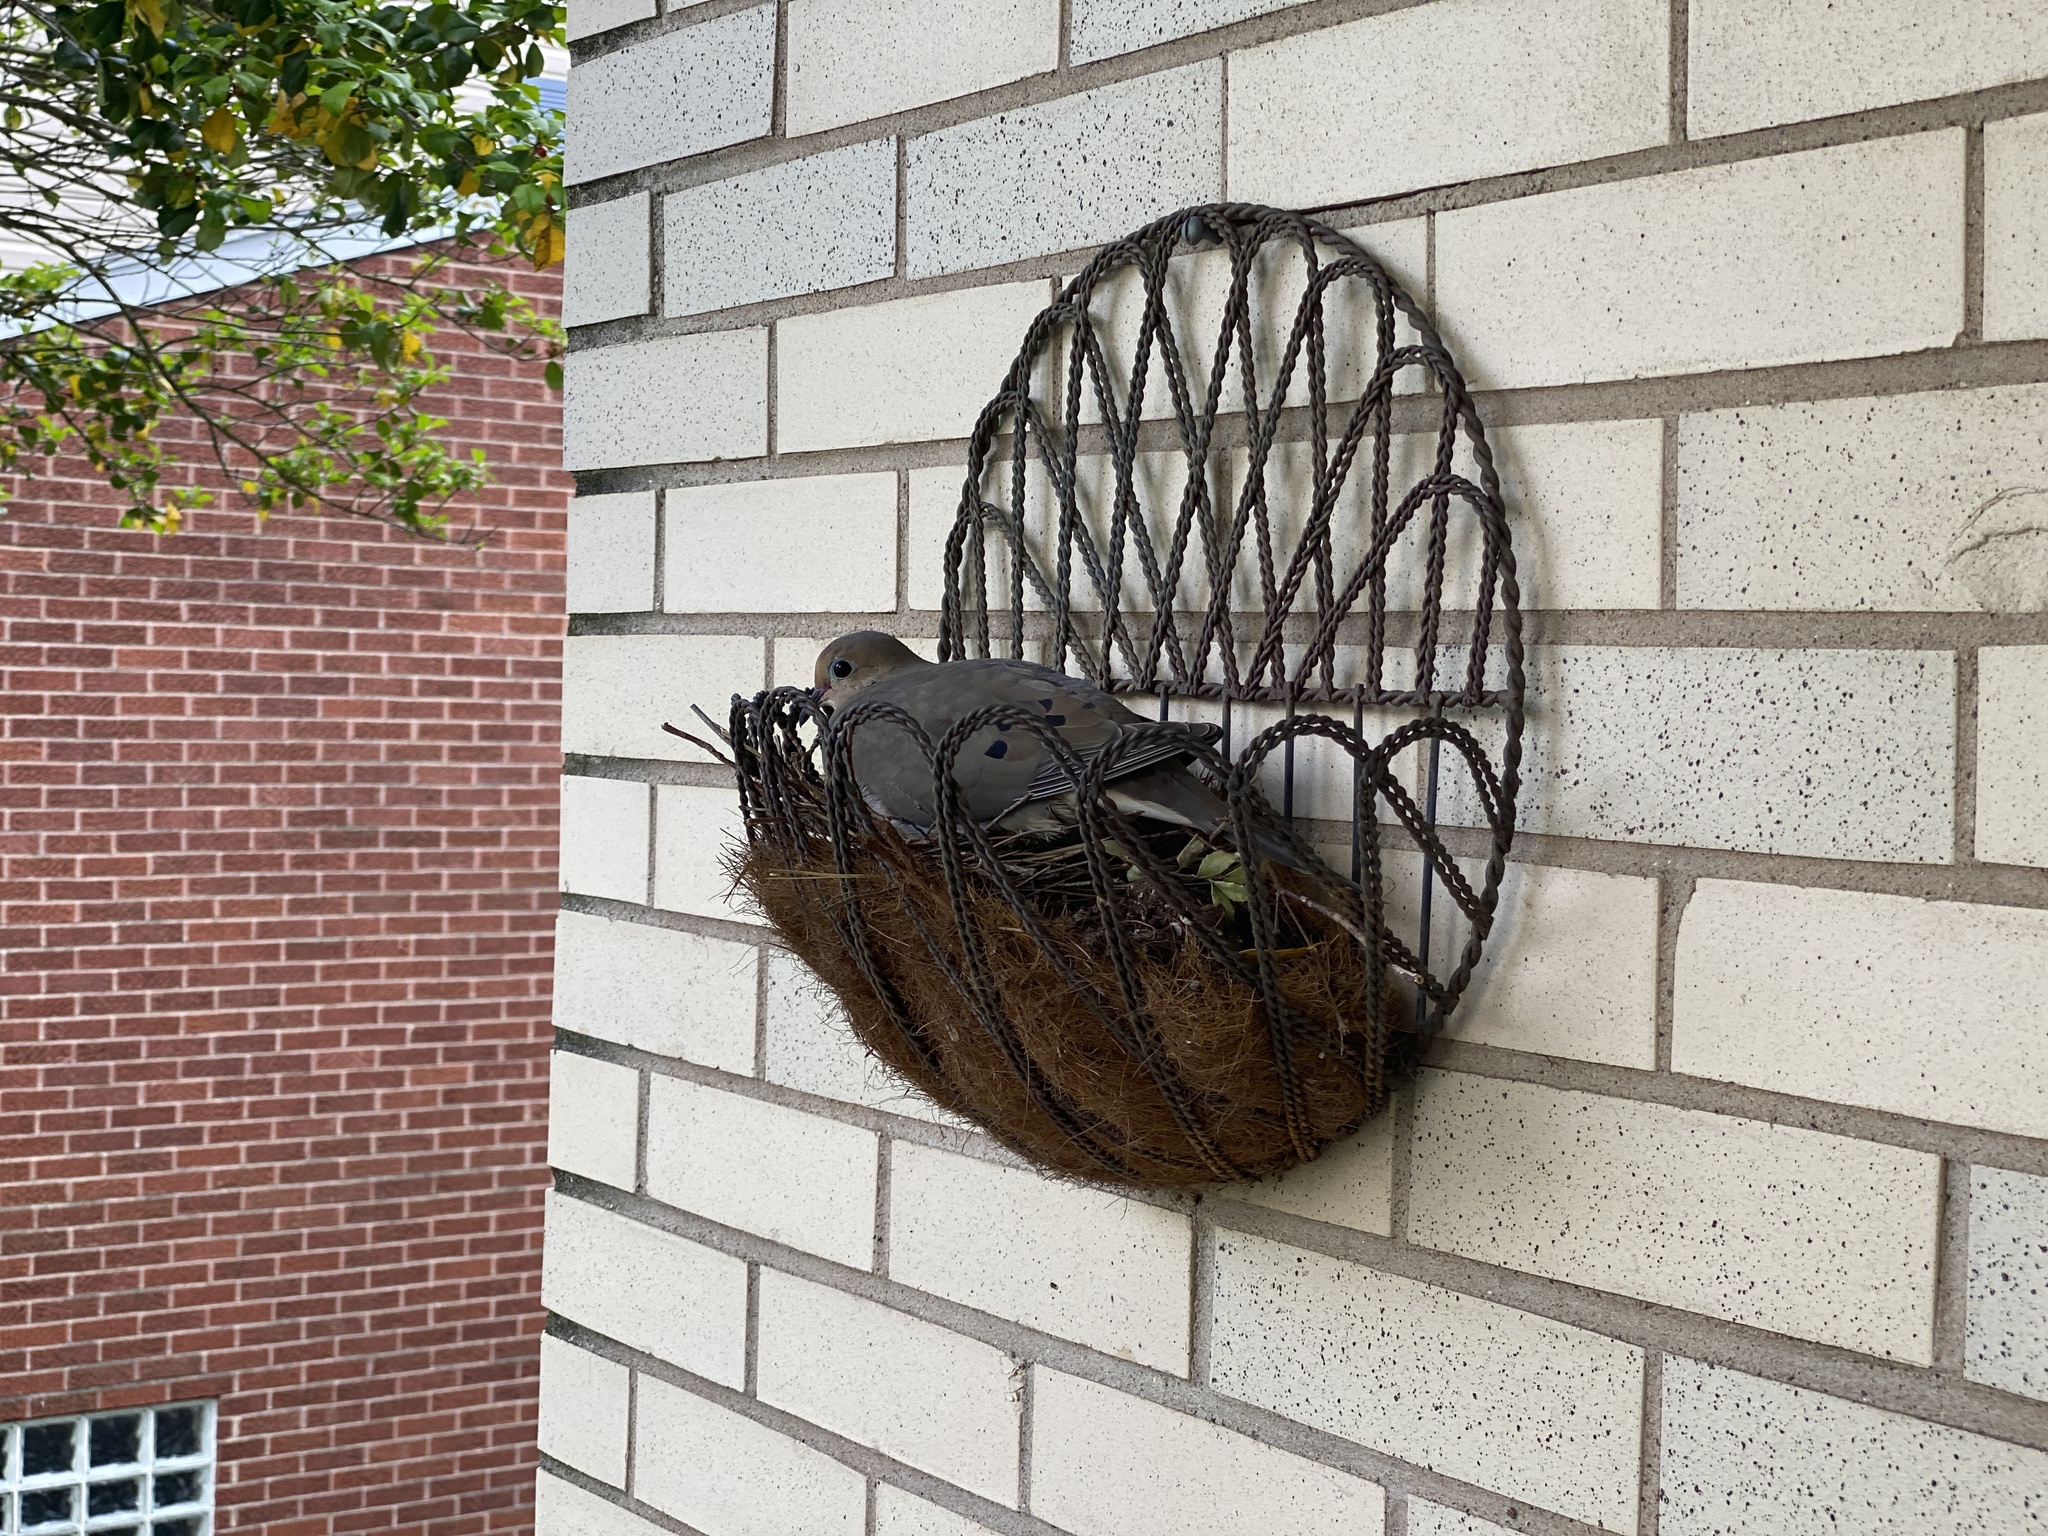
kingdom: Animalia
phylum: Chordata
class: Aves
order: Columbiformes
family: Columbidae
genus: Zenaida
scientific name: Zenaida macroura
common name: Mourning dove
